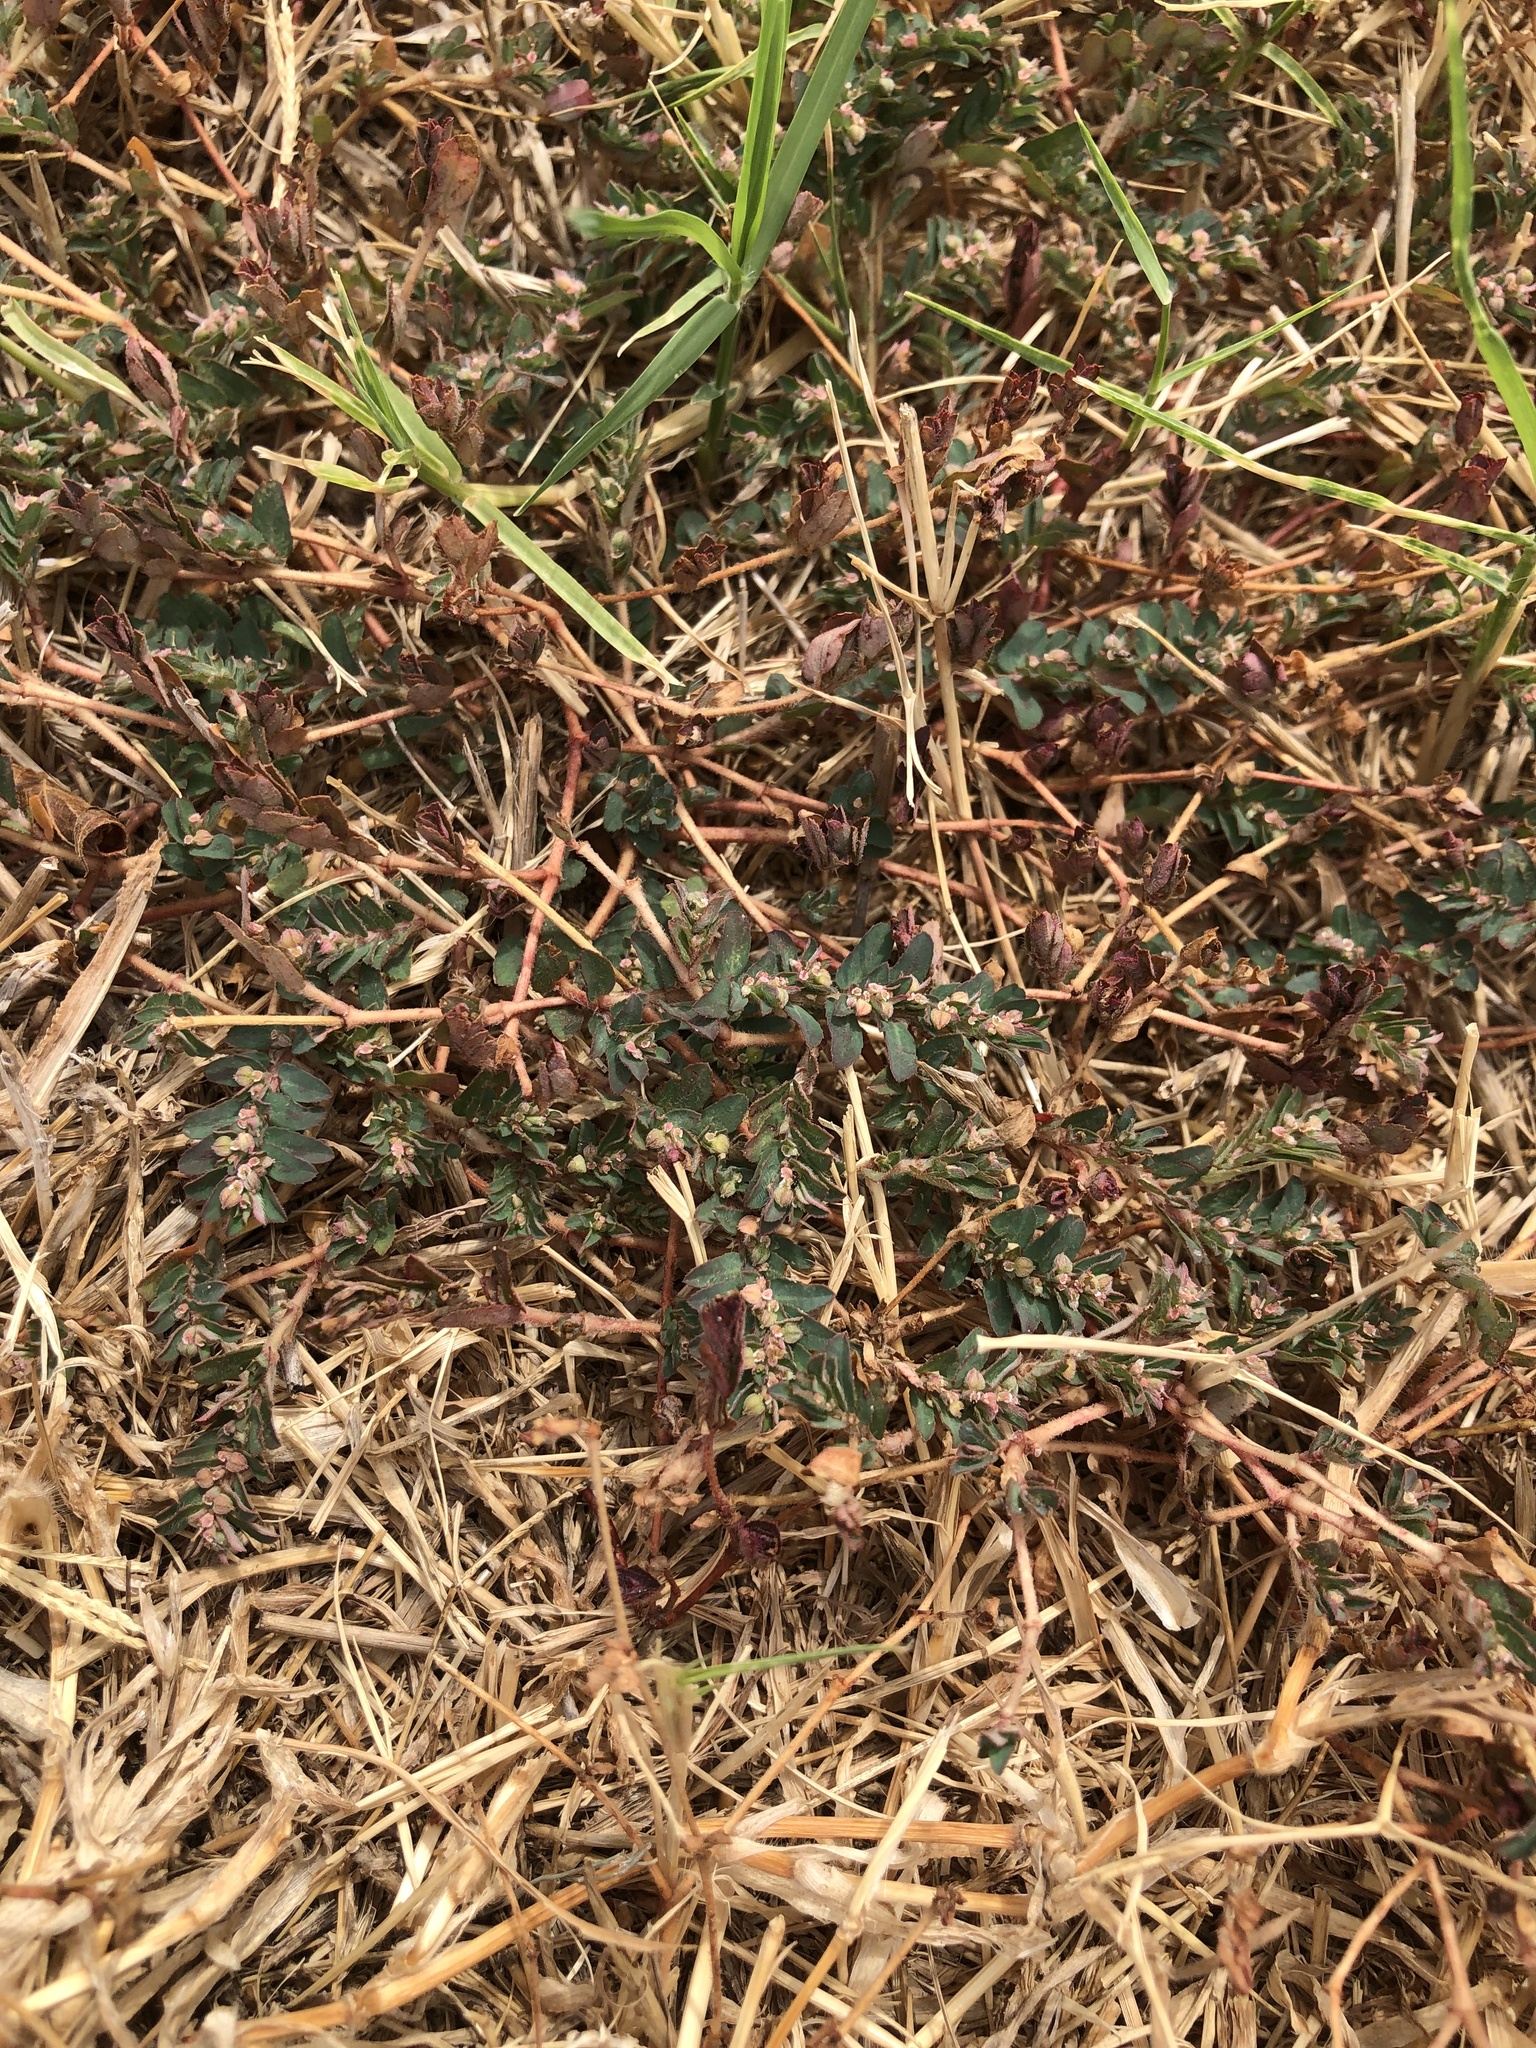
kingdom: Plantae
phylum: Tracheophyta
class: Magnoliopsida
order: Malpighiales
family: Euphorbiaceae
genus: Euphorbia
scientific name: Euphorbia maculata
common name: Spotted spurge
